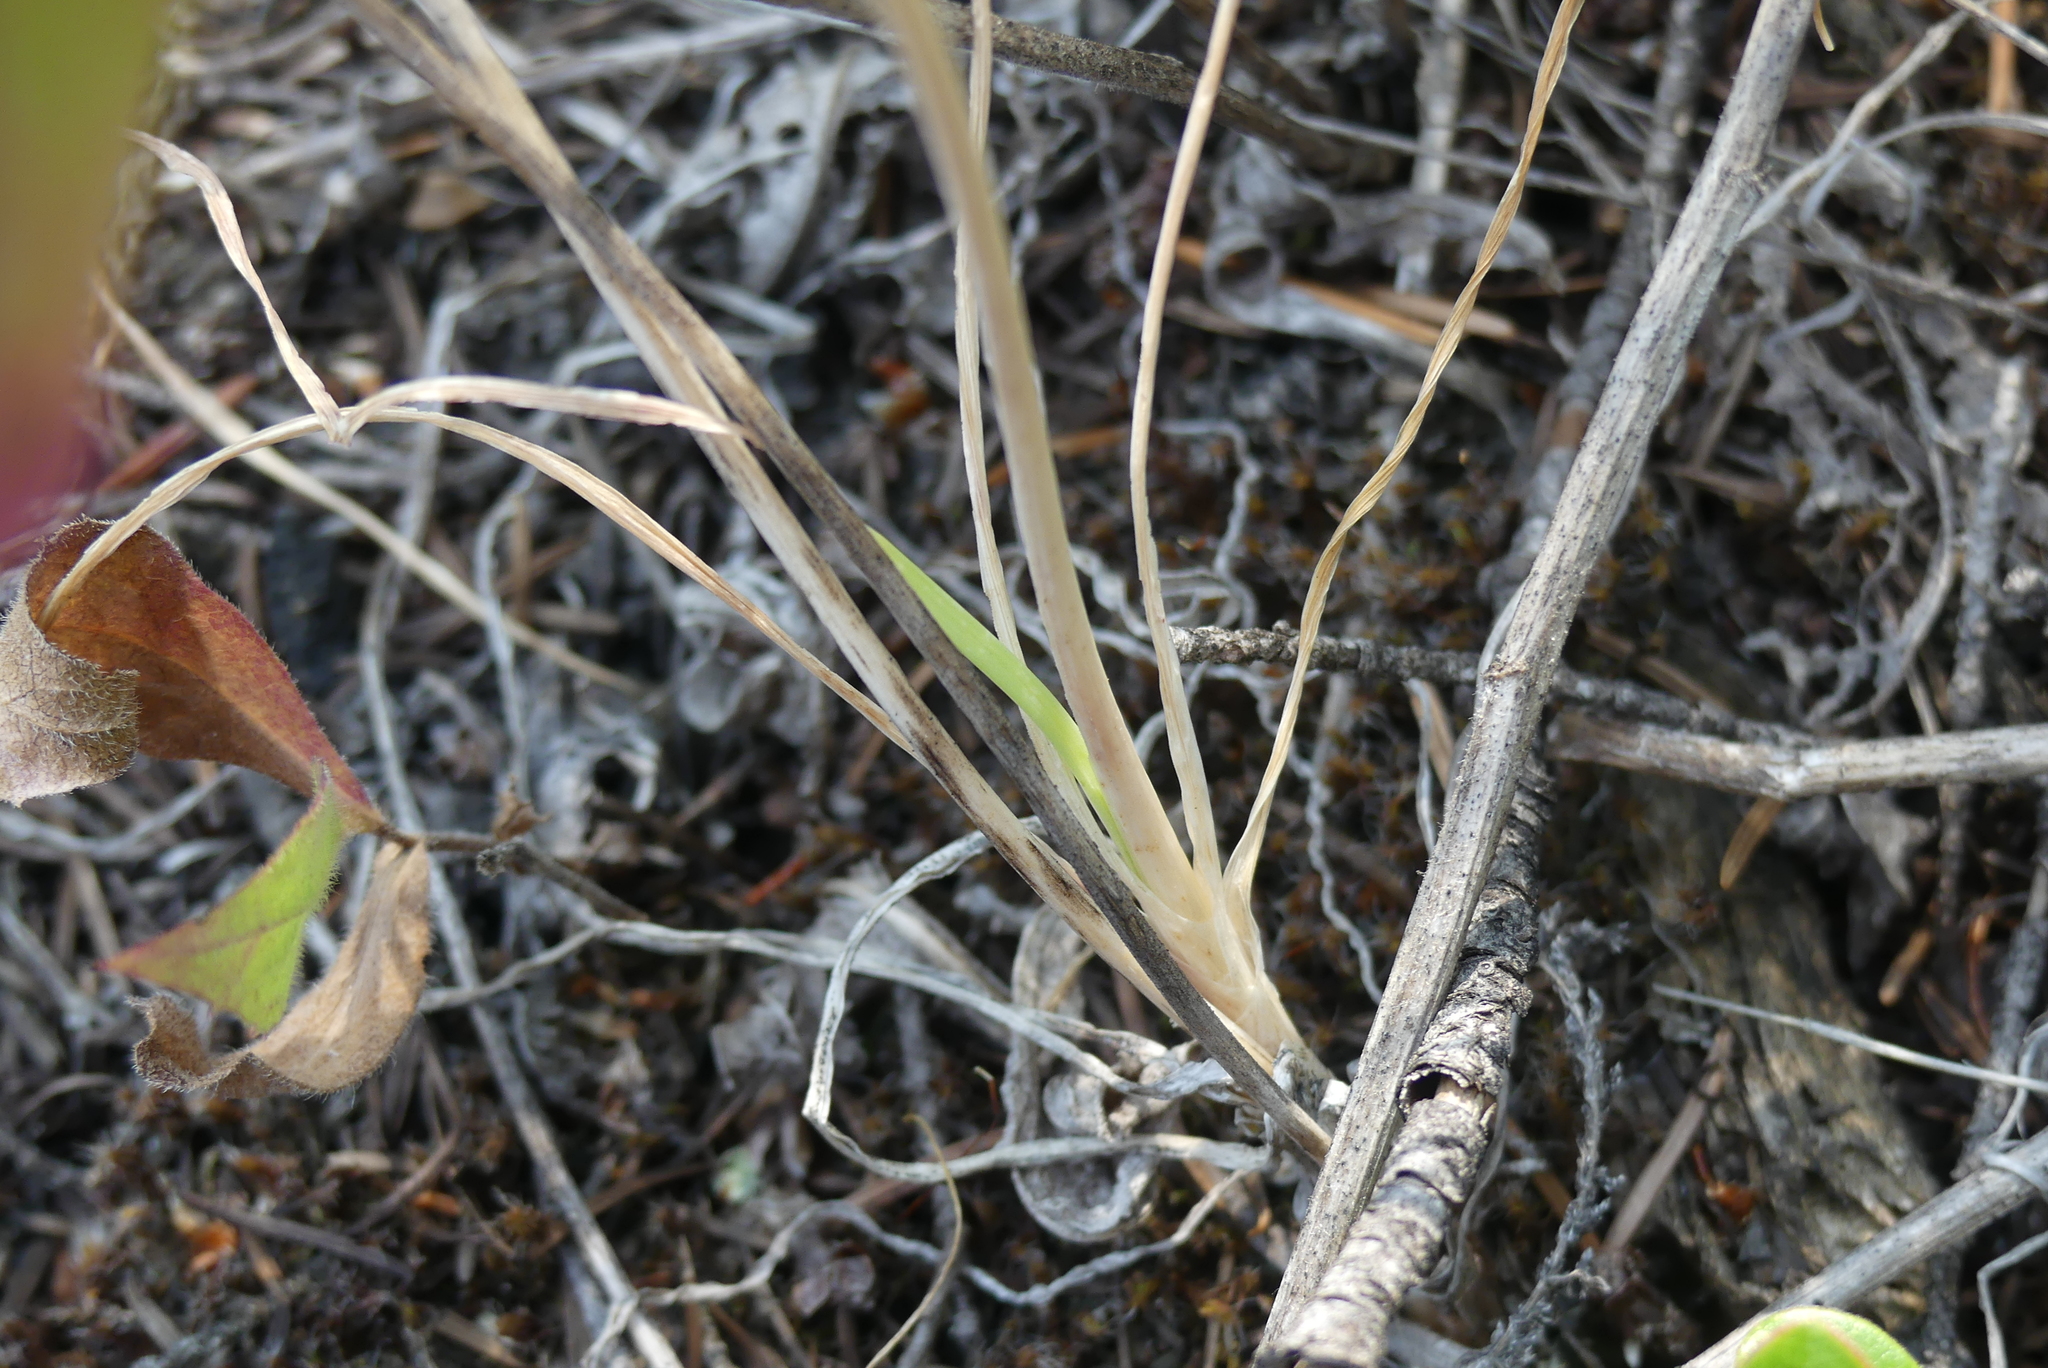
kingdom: Plantae
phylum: Tracheophyta
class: Liliopsida
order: Asparagales
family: Amaryllidaceae
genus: Allium
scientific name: Allium cernuum
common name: Nodding onion
